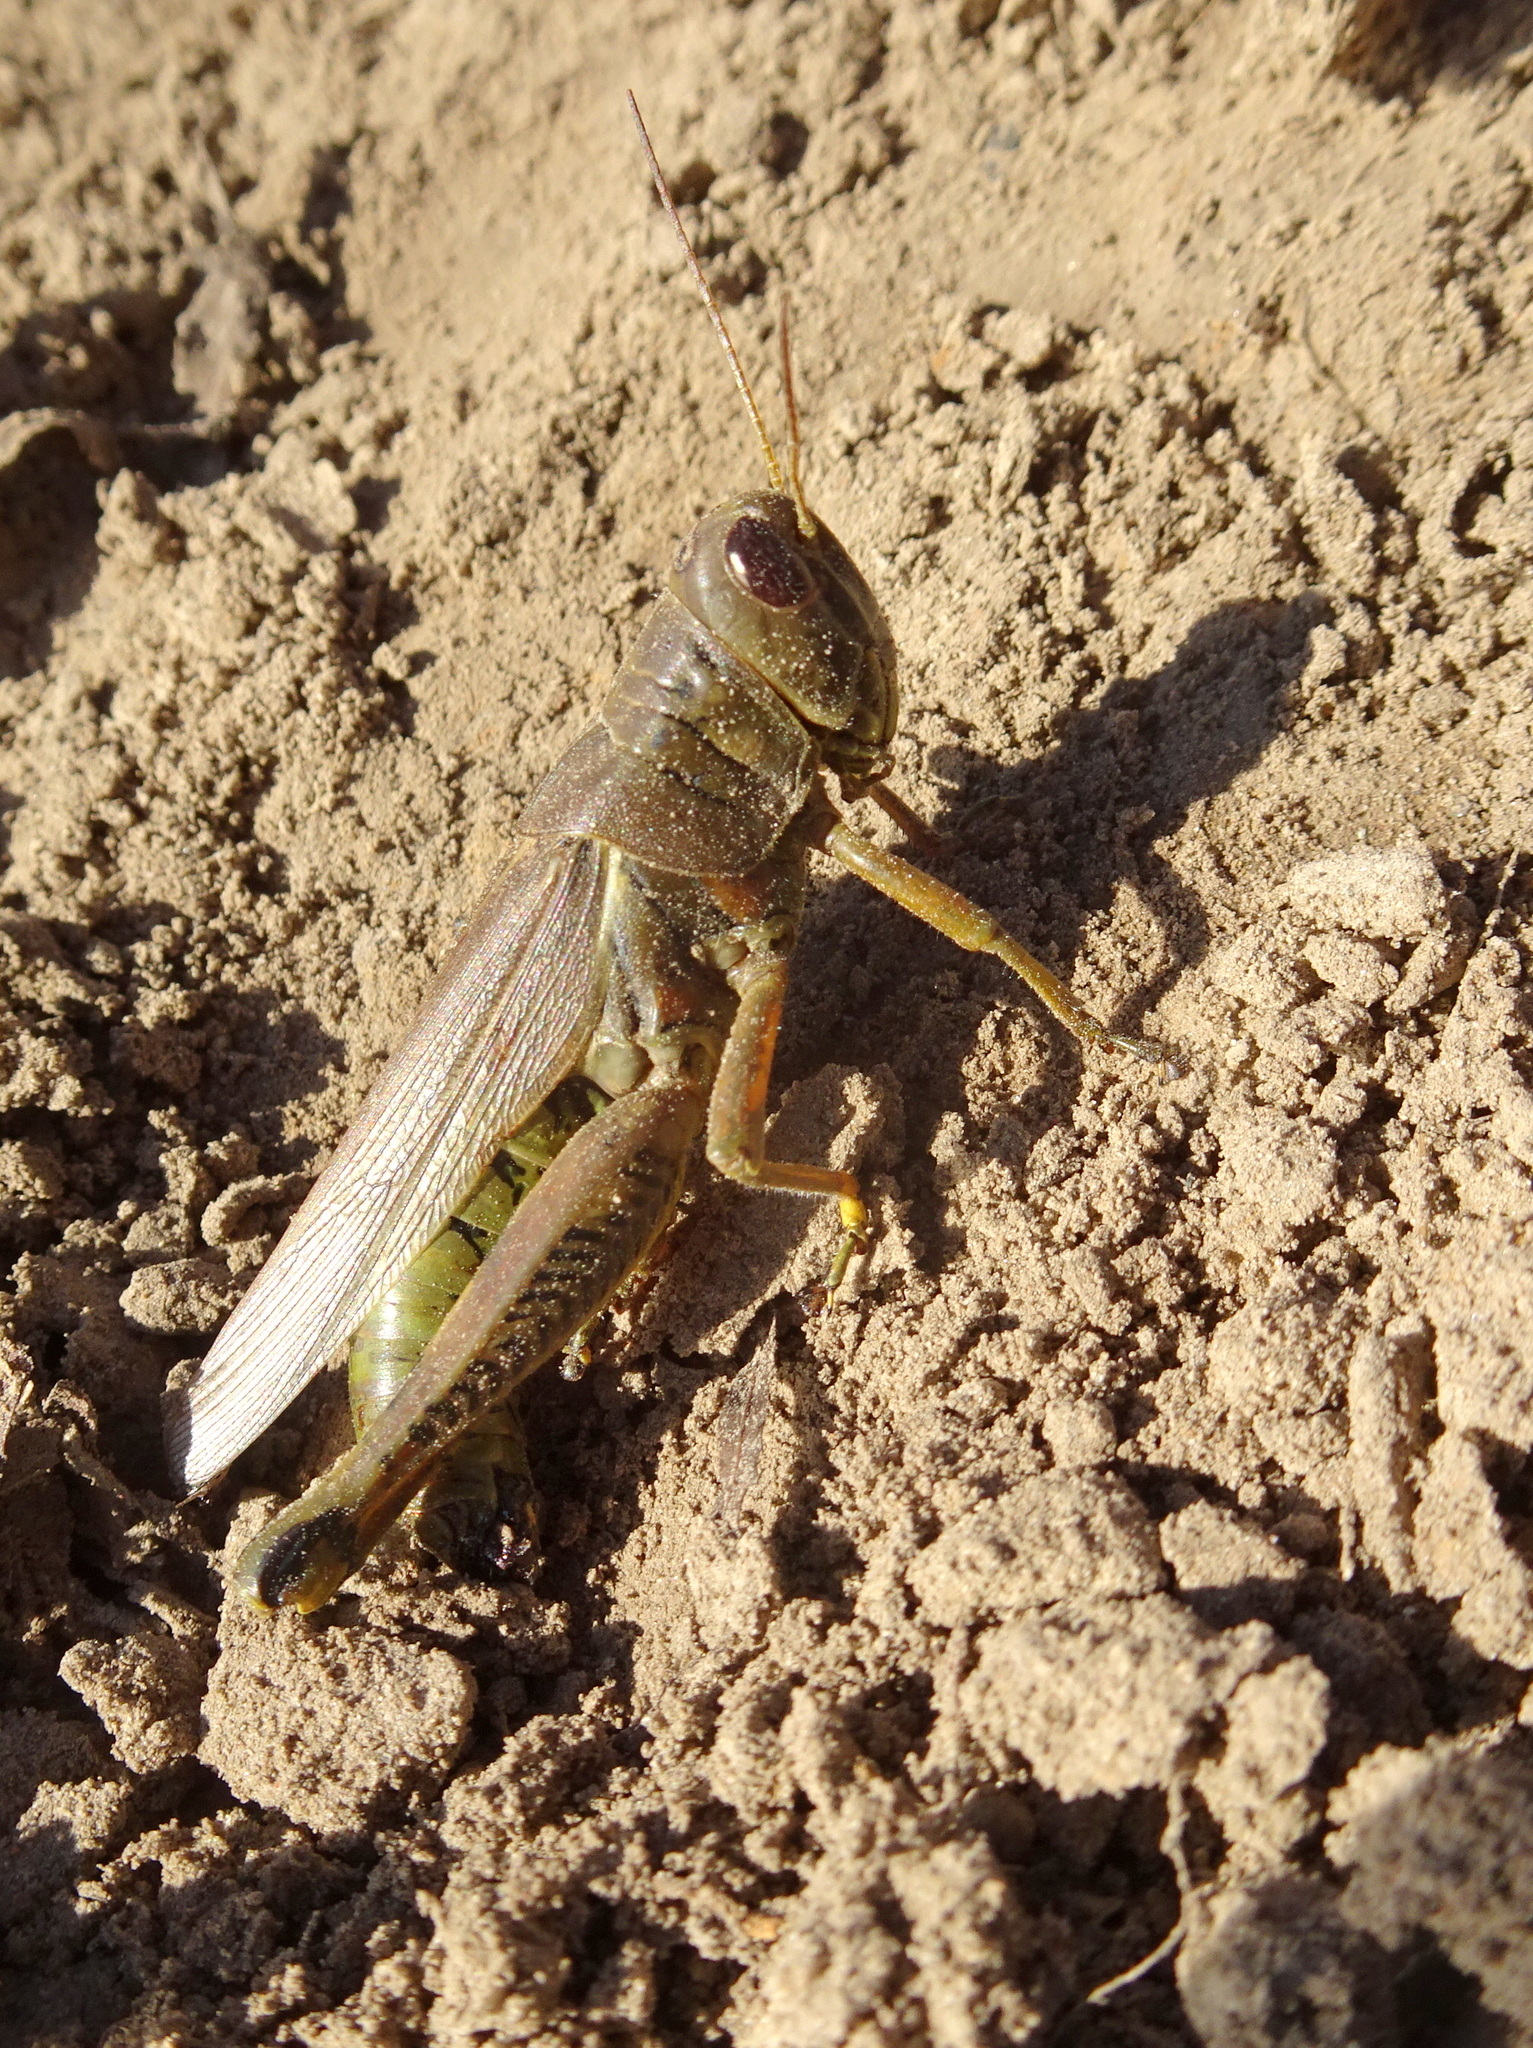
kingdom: Animalia
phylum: Arthropoda
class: Insecta
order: Orthoptera
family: Acrididae
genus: Melanoplus
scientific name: Melanoplus differentialis
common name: Differential grasshopper
